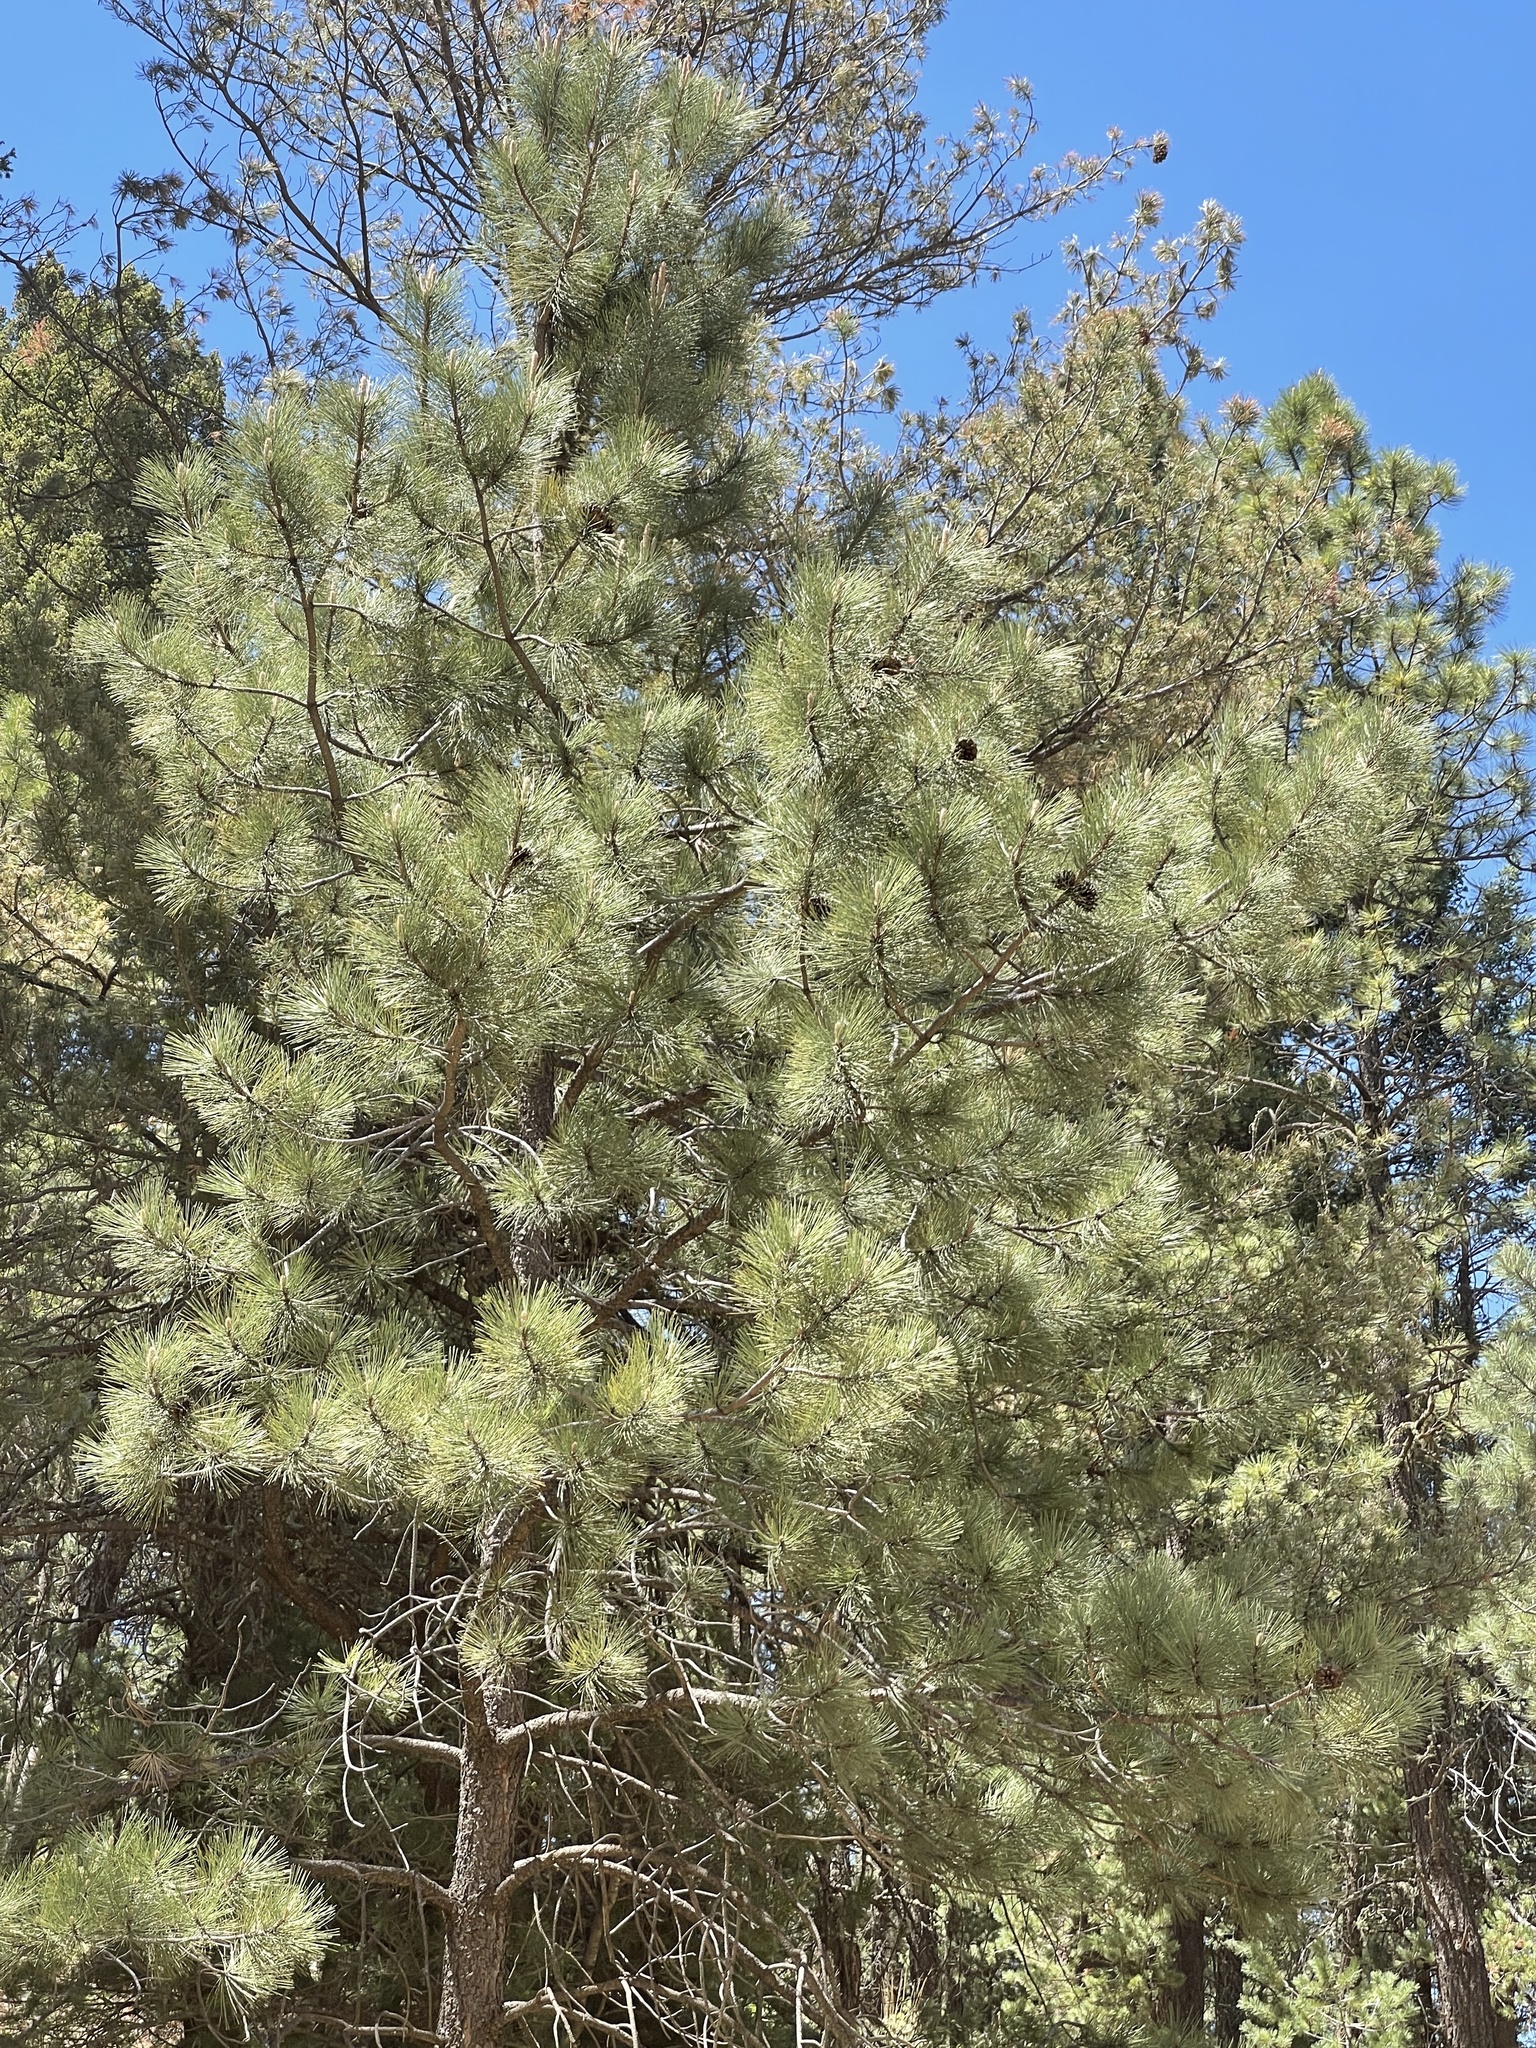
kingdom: Plantae
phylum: Tracheophyta
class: Pinopsida
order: Pinales
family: Pinaceae
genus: Pinus
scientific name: Pinus ponderosa
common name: Western yellow-pine
